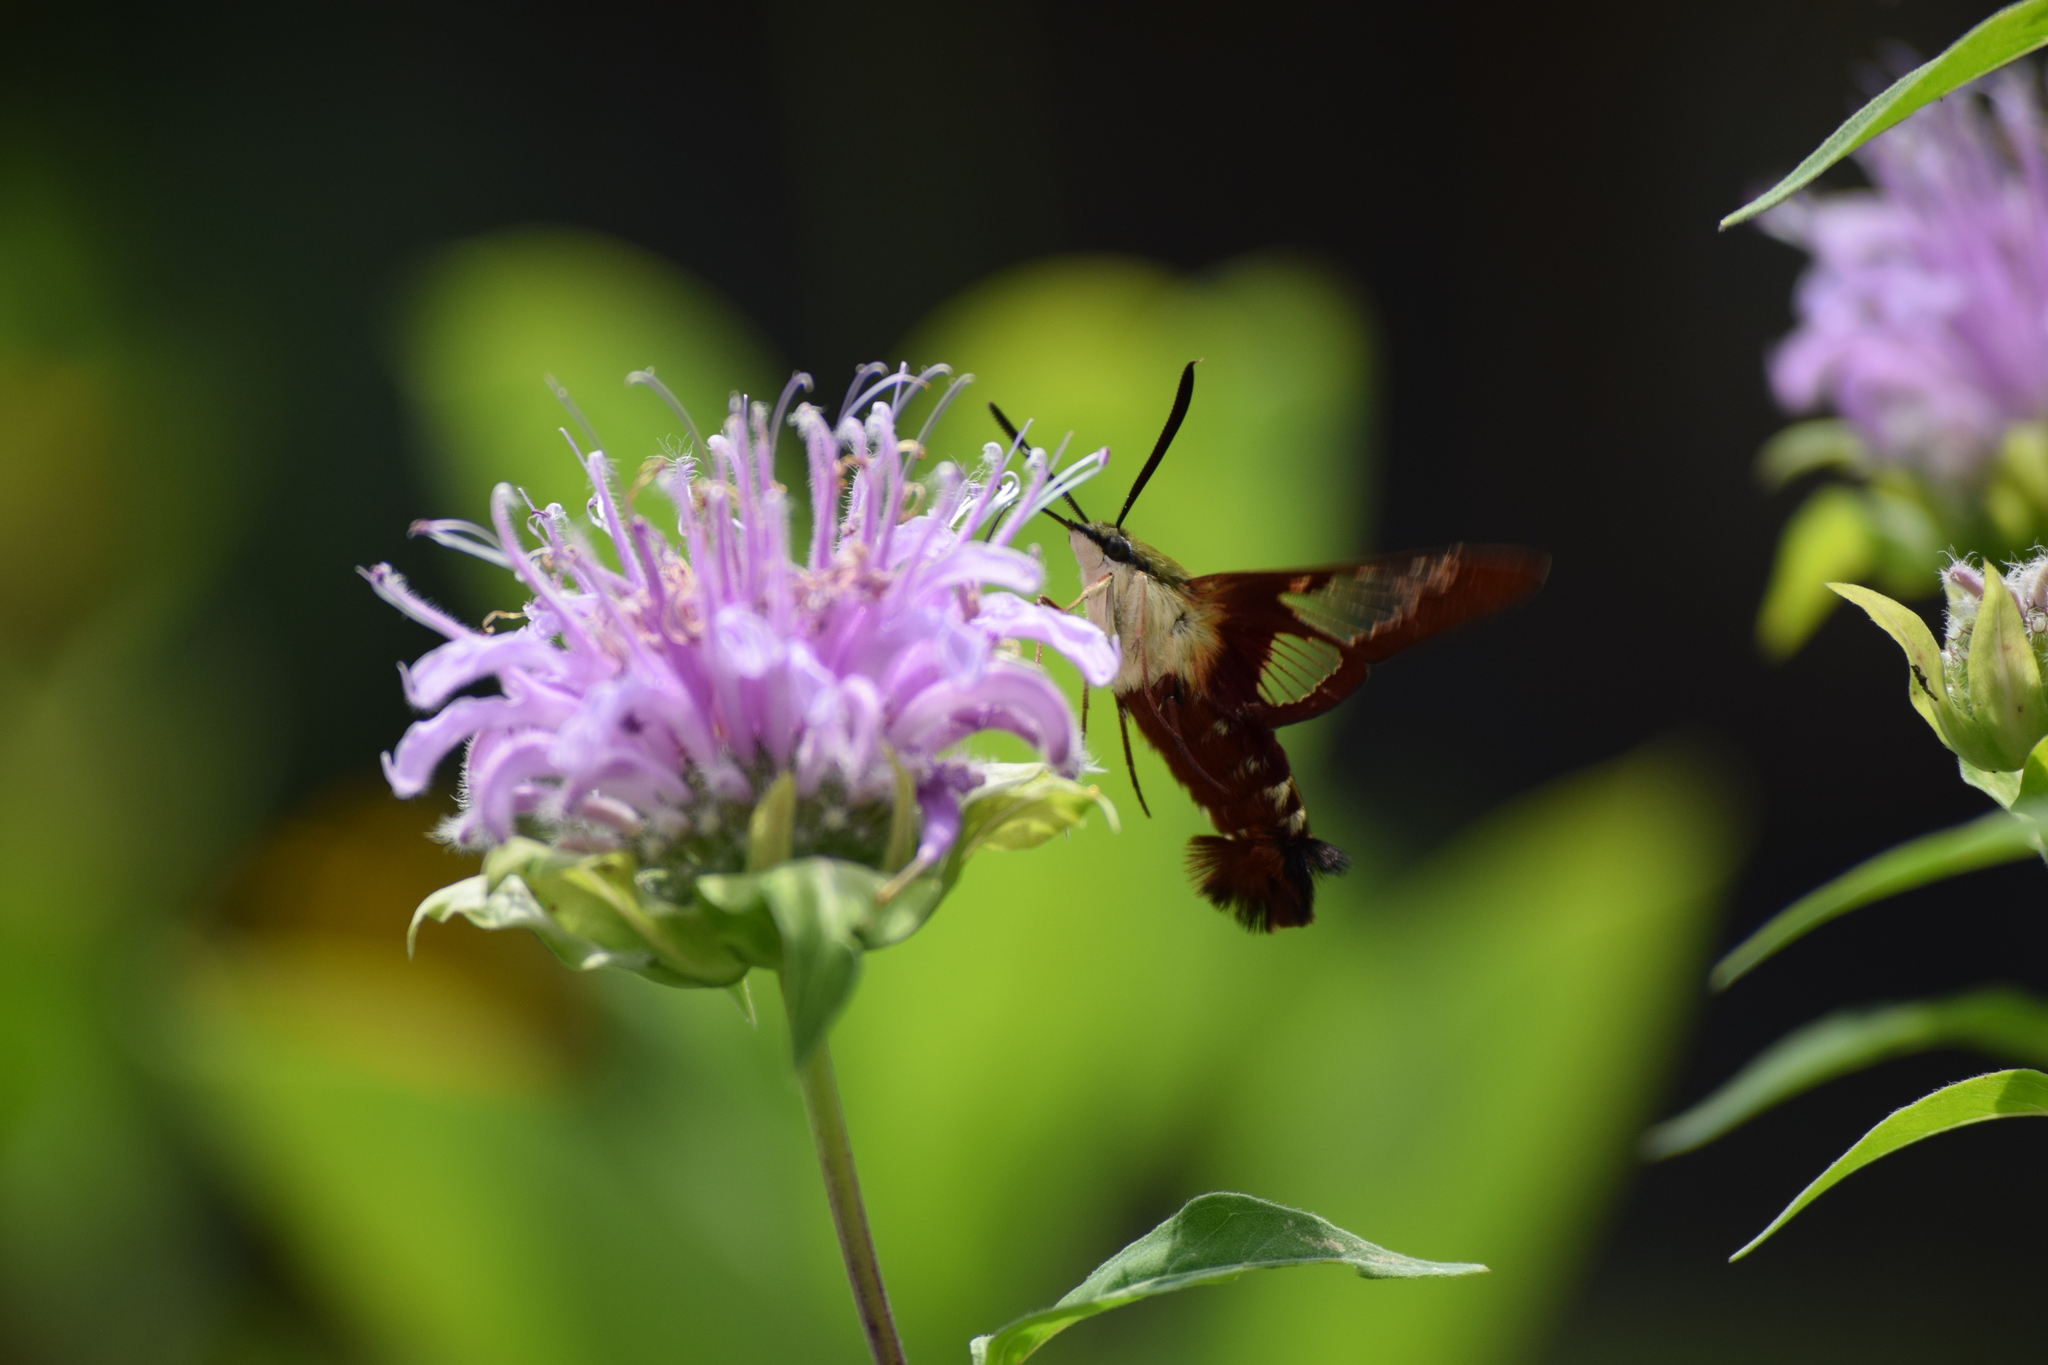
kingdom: Animalia
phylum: Arthropoda
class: Insecta
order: Lepidoptera
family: Sphingidae
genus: Hemaris
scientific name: Hemaris thysbe
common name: Common clear-wing
